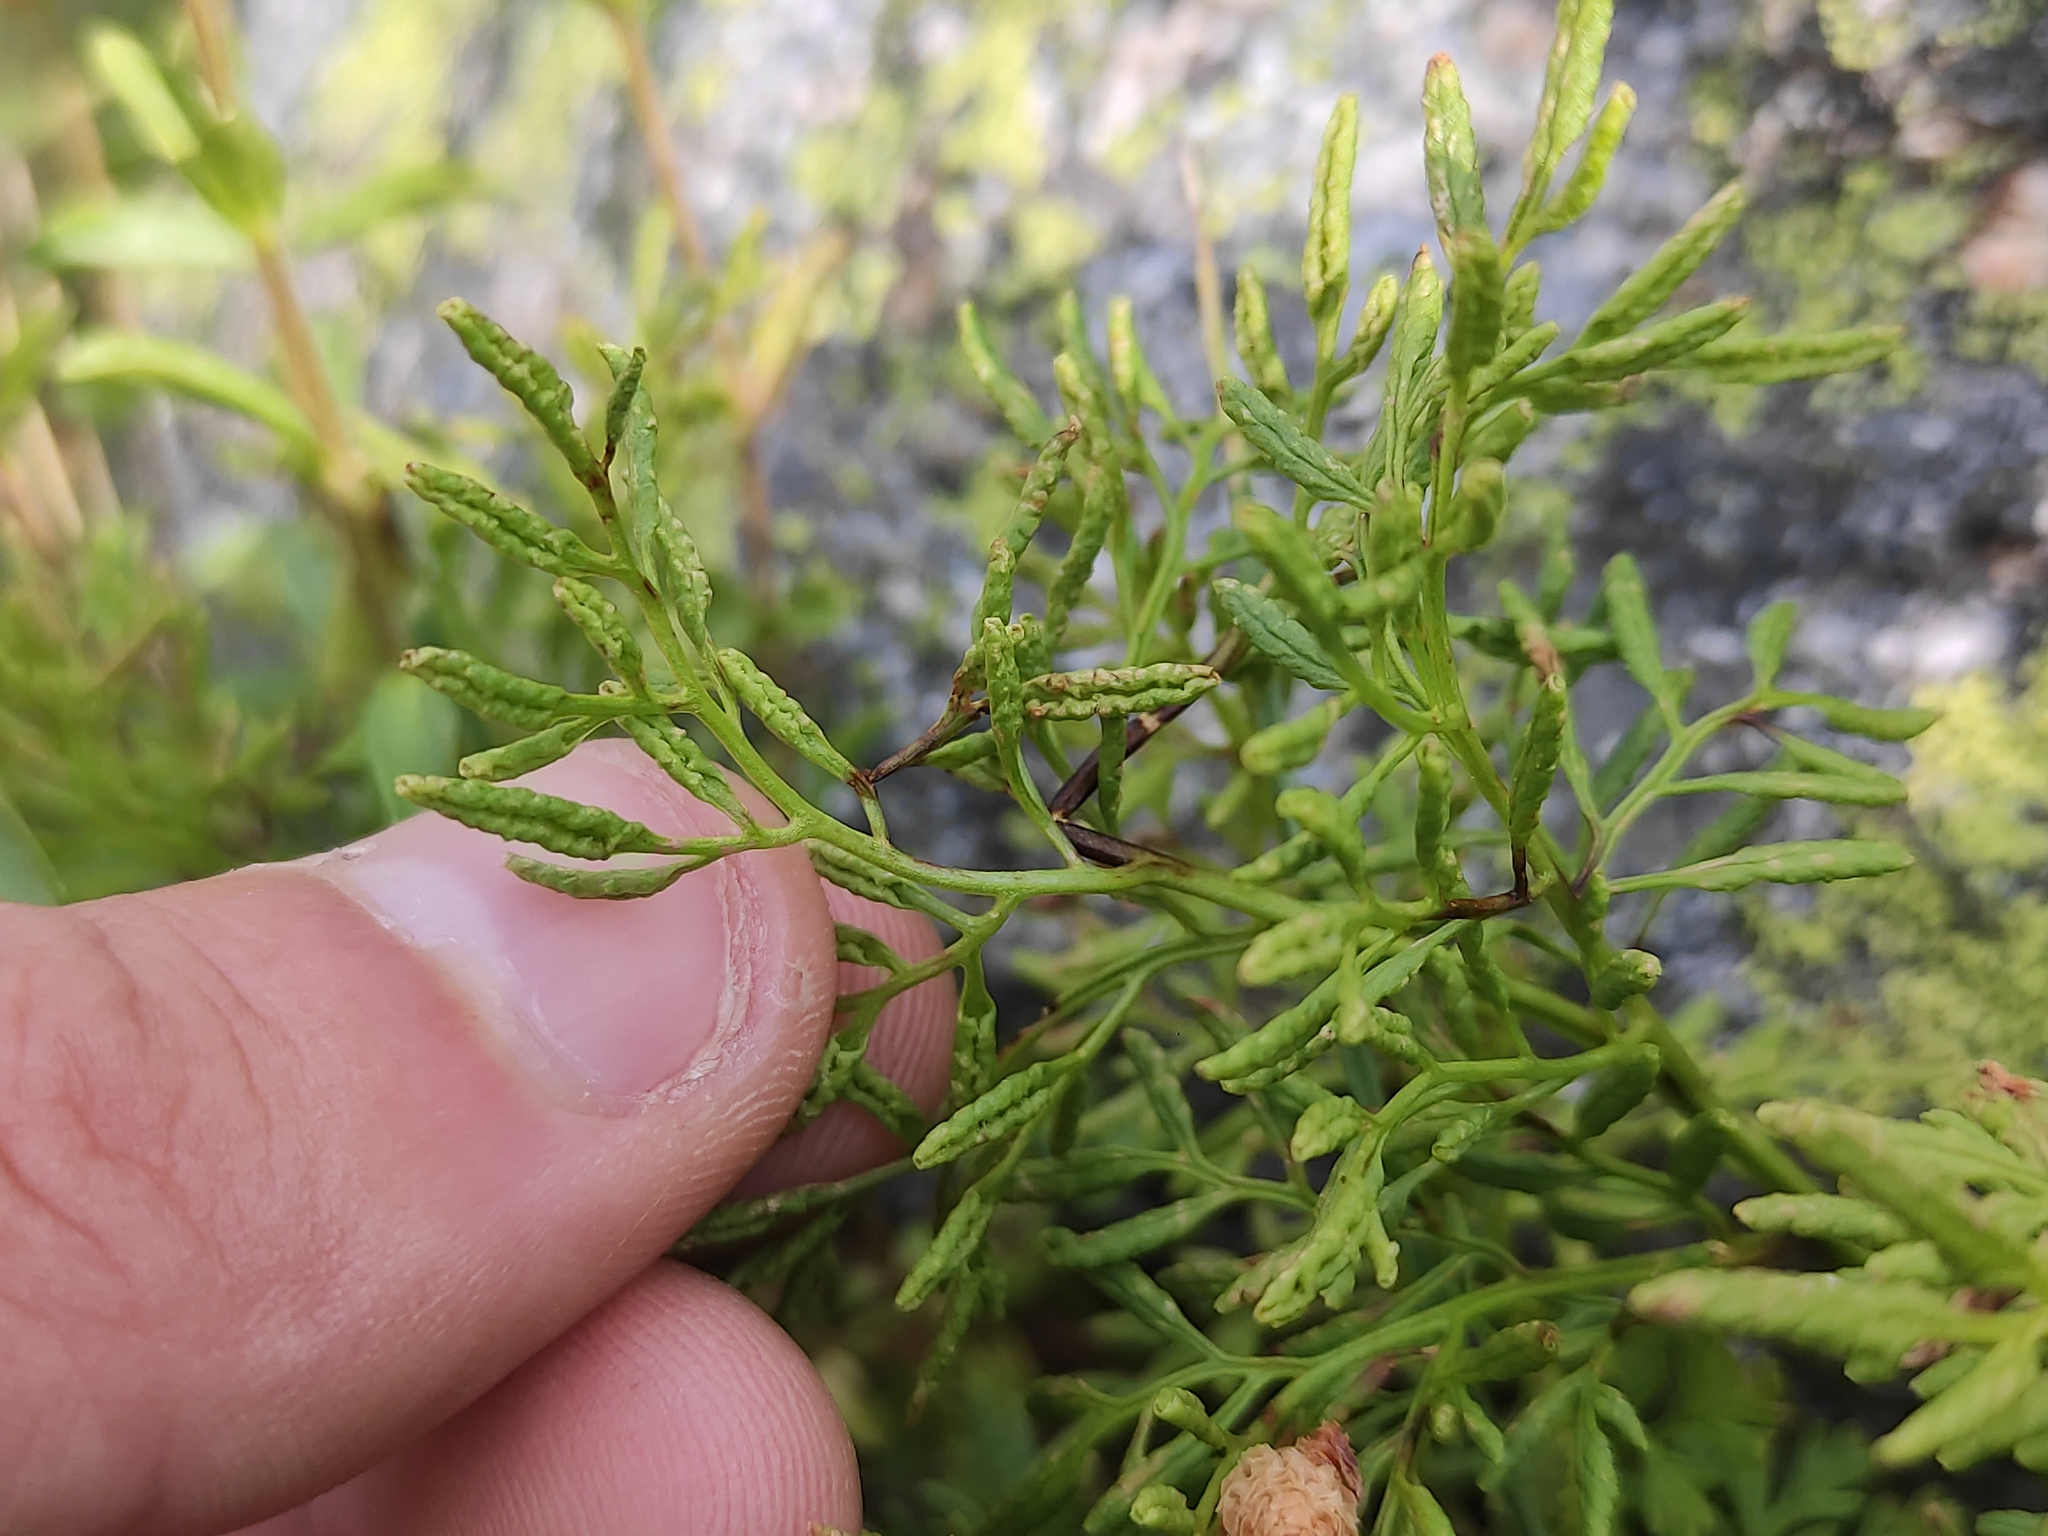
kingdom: Plantae
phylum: Tracheophyta
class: Polypodiopsida
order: Polypodiales
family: Pteridaceae
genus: Cryptogramma
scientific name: Cryptogramma crispa
